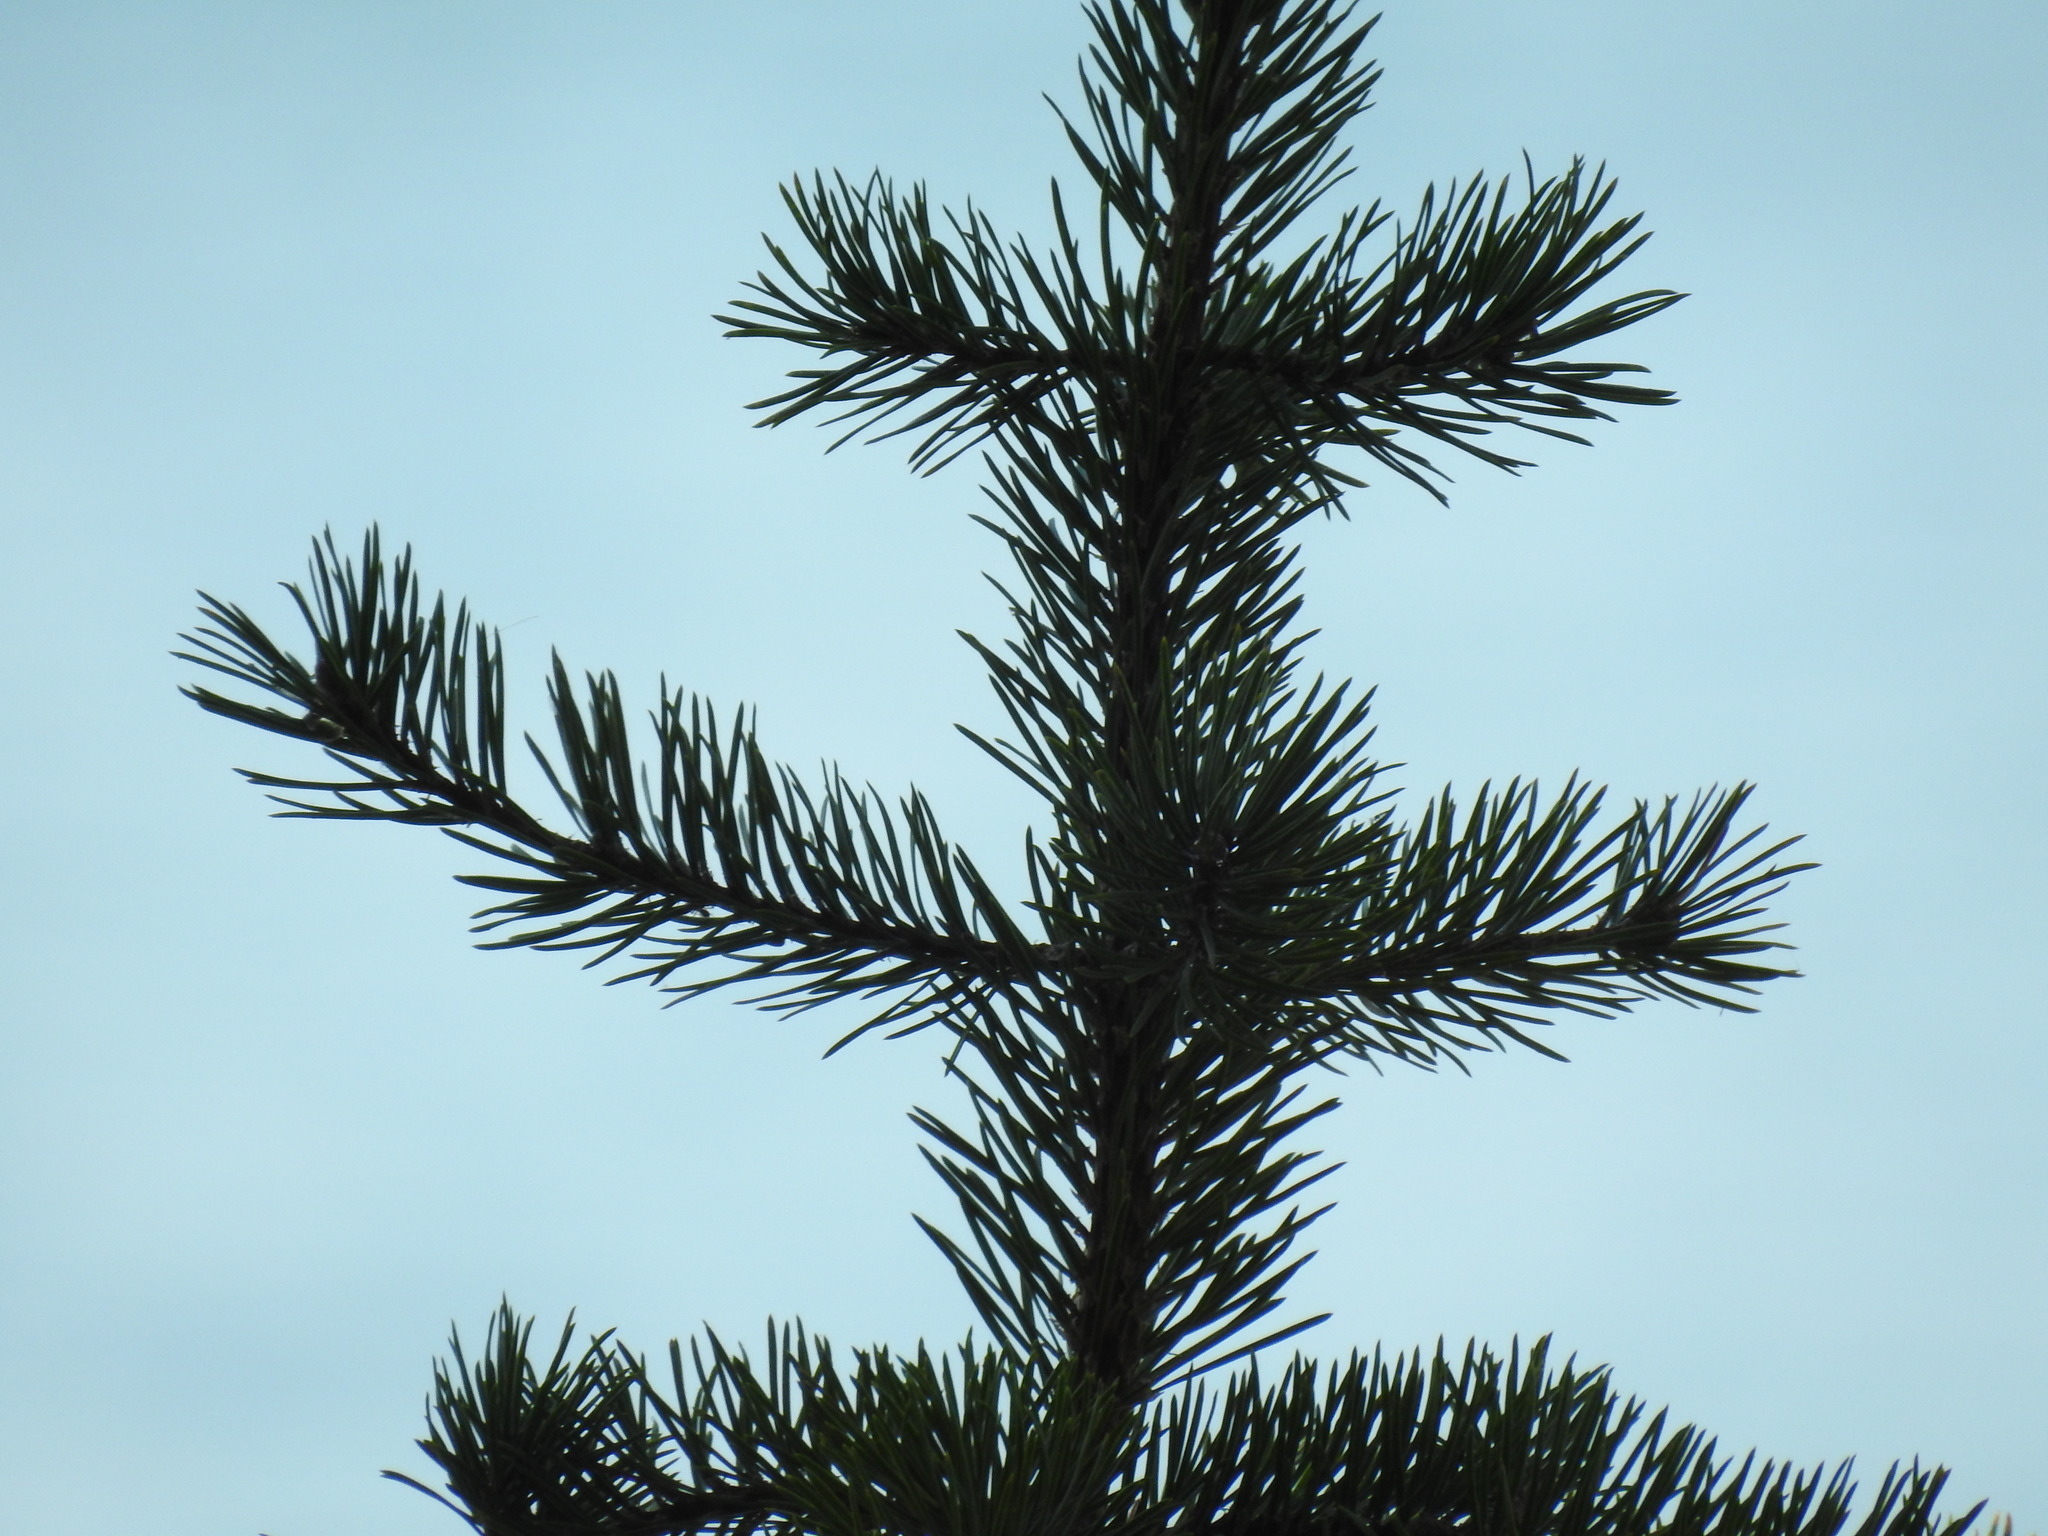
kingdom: Plantae
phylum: Tracheophyta
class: Pinopsida
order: Pinales
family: Pinaceae
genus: Pinus
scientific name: Pinus banksiana
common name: Jack pine
